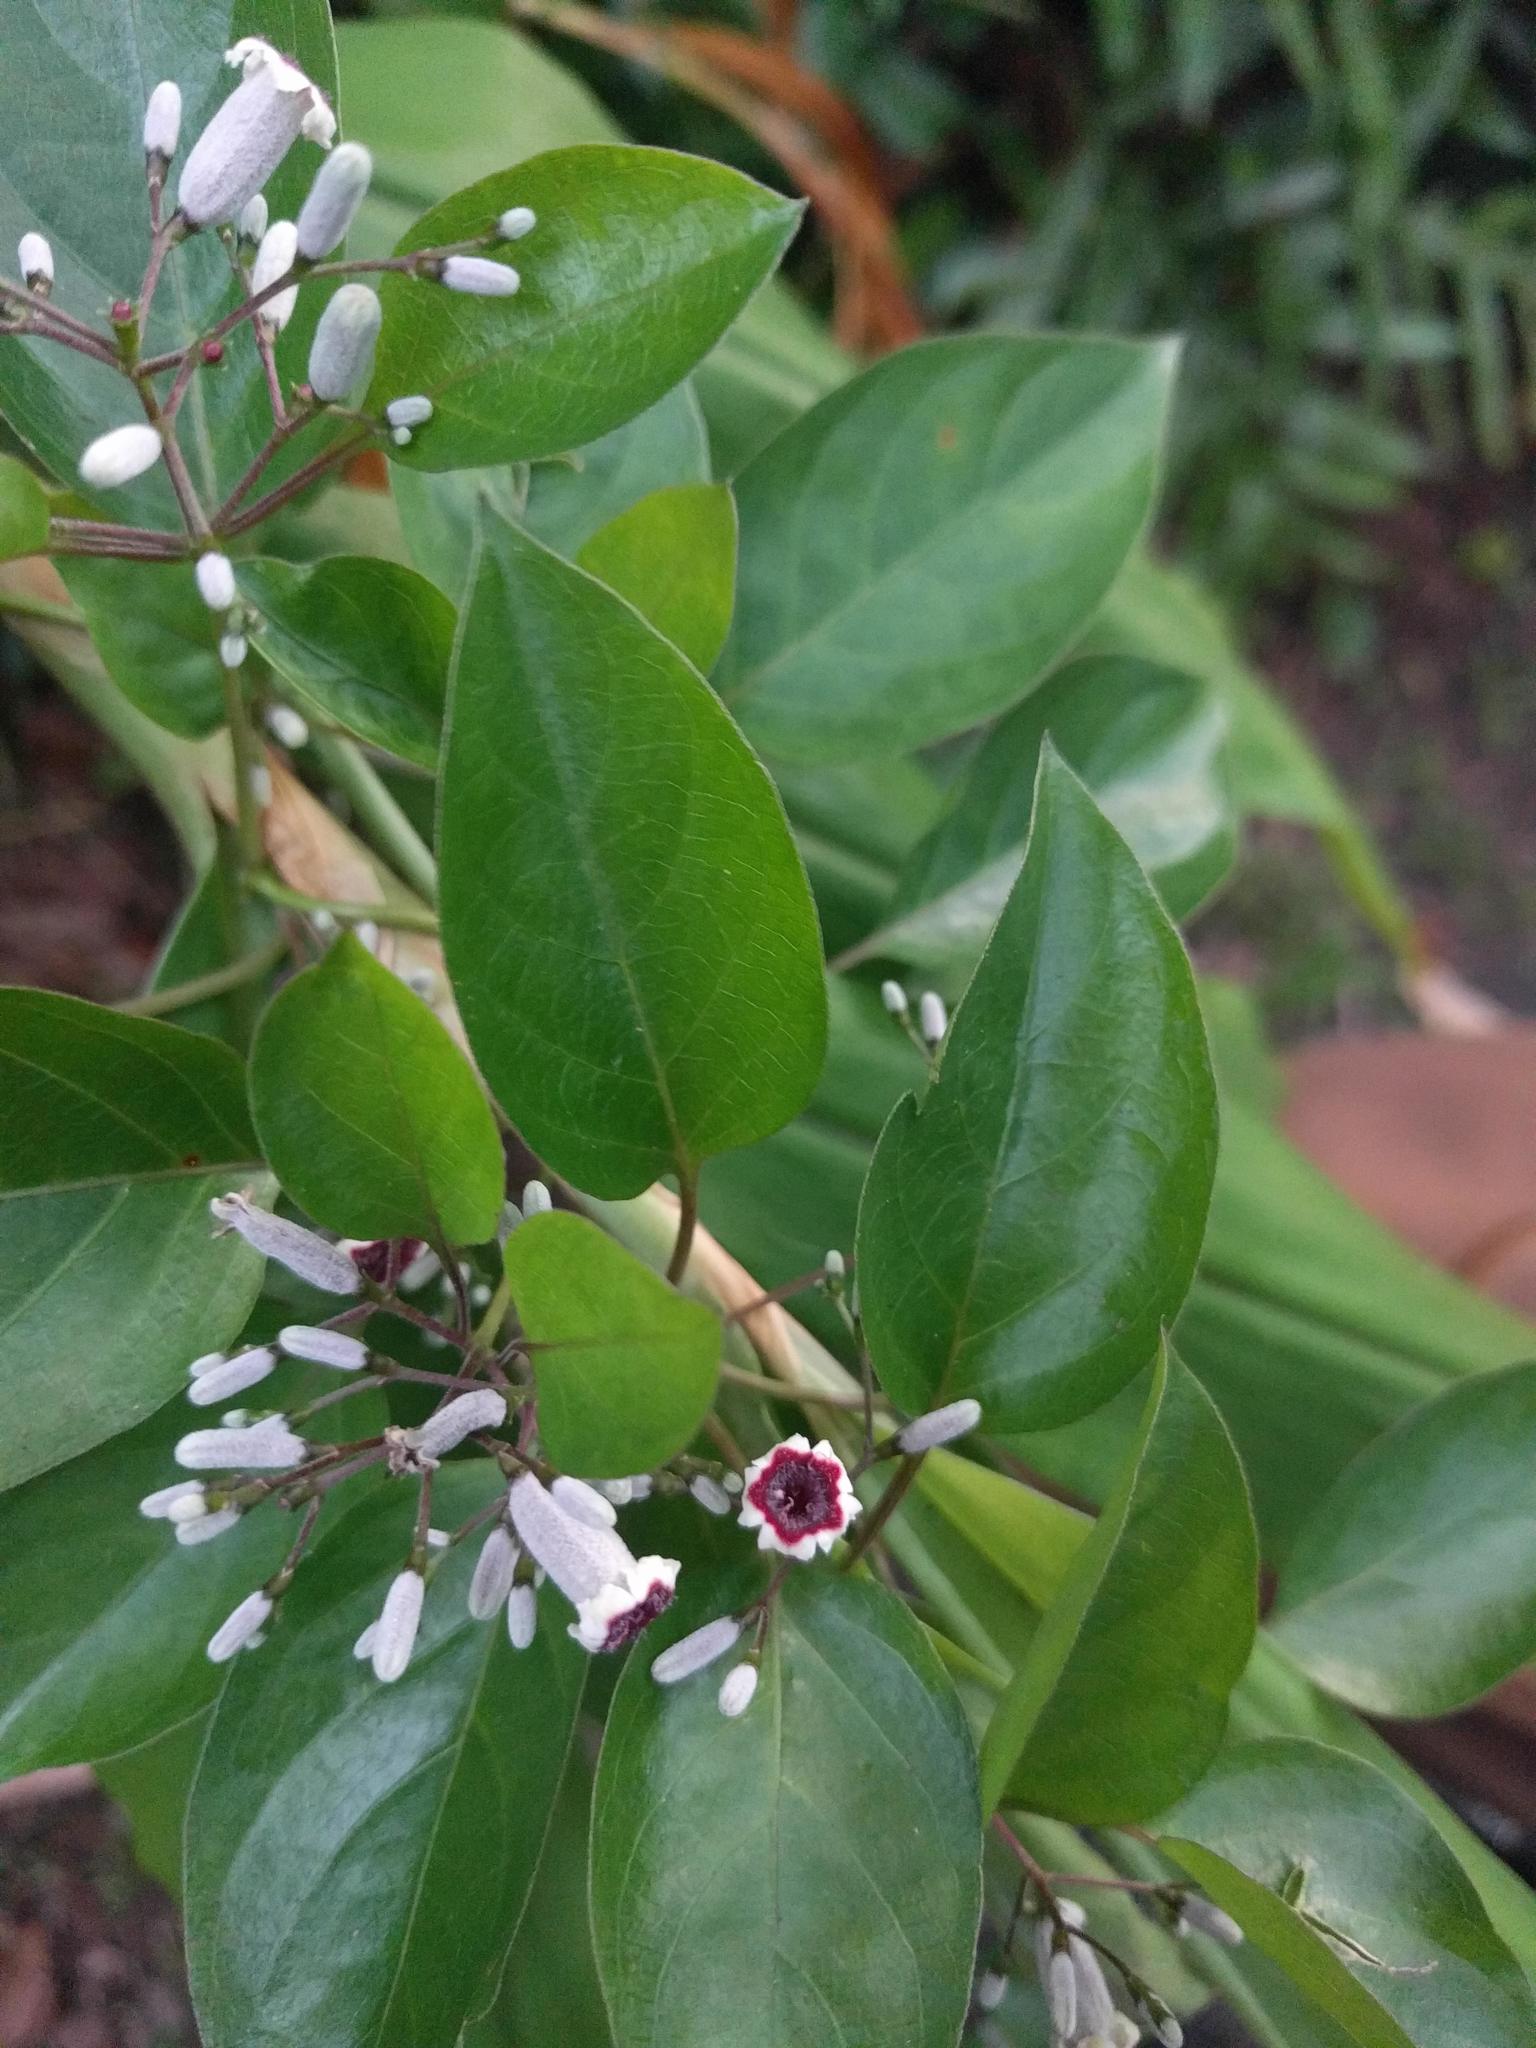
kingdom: Plantae
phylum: Tracheophyta
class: Magnoliopsida
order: Gentianales
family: Rubiaceae
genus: Paederia
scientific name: Paederia foetida
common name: Stinkvine
